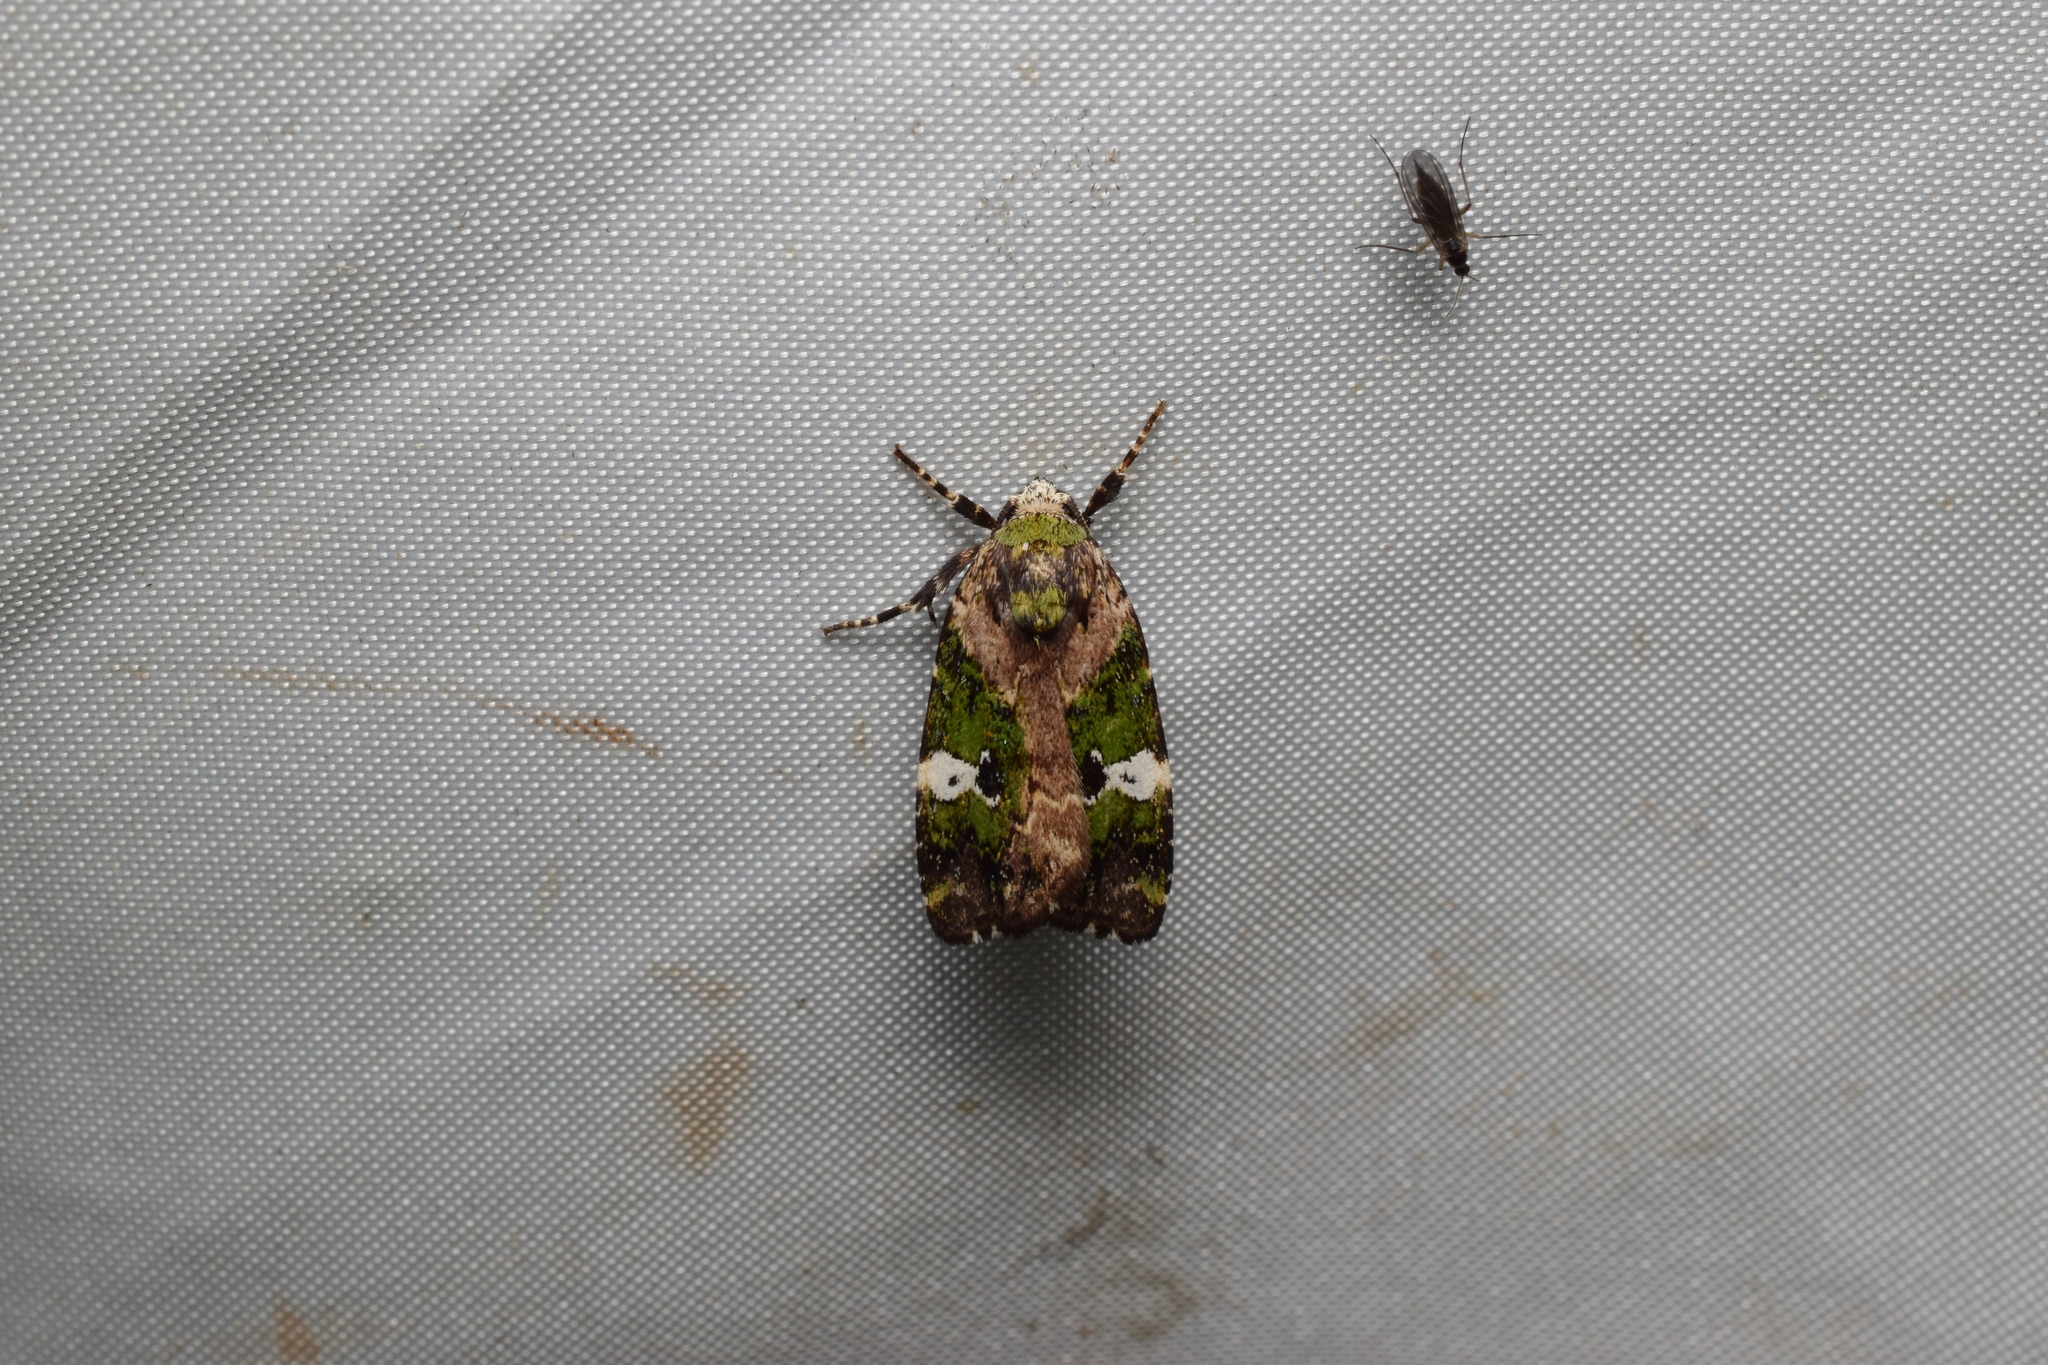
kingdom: Animalia
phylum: Arthropoda
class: Insecta
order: Lepidoptera
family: Noctuidae
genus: Prometopus
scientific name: Prometopus flavicollis
